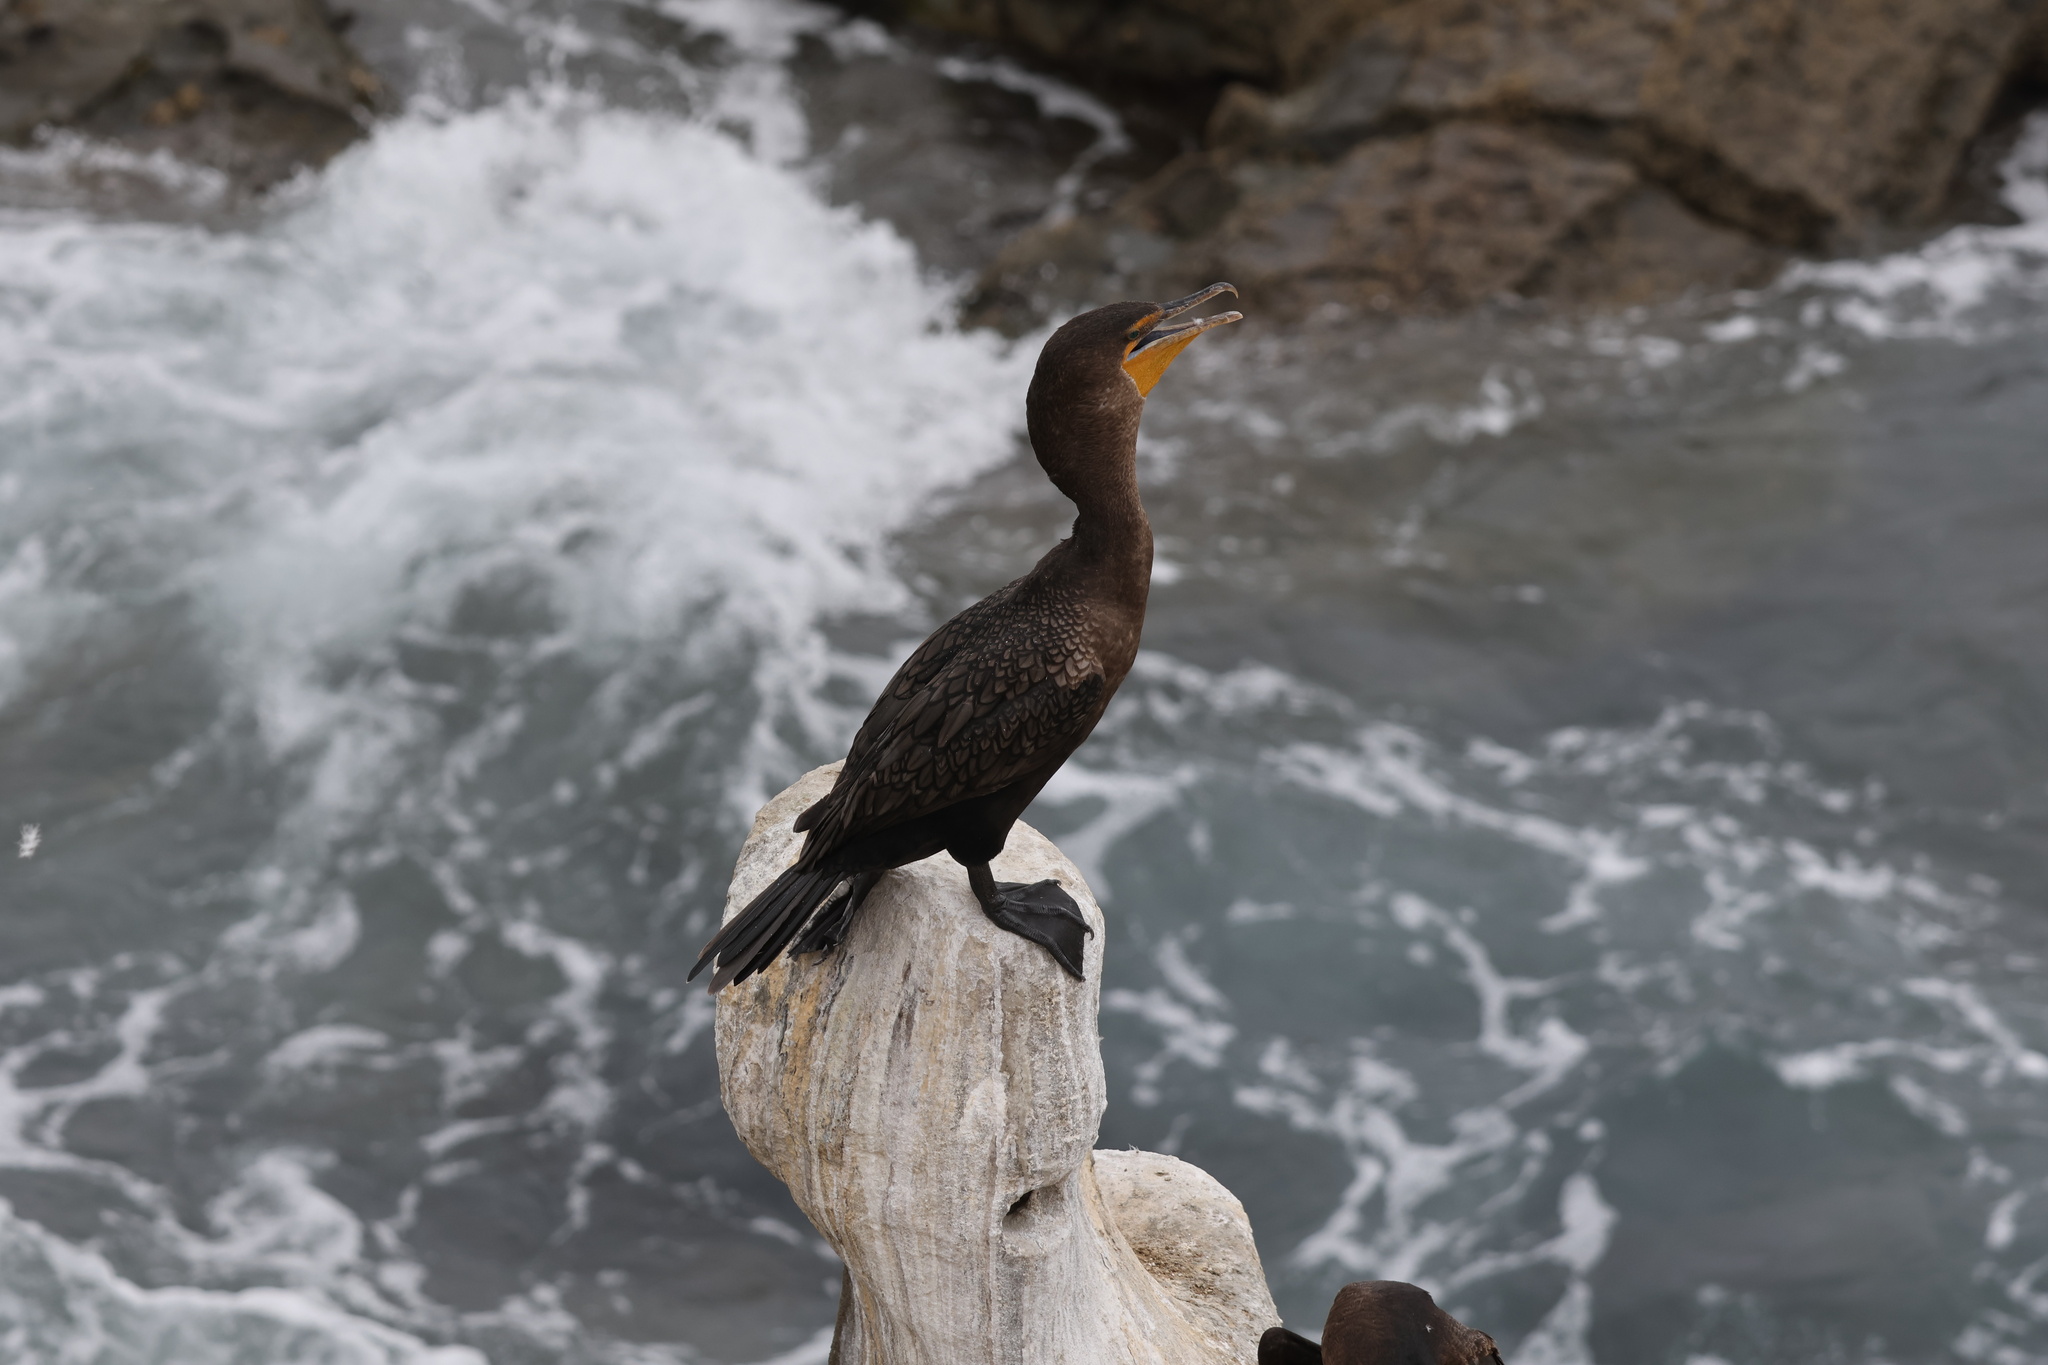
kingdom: Animalia
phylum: Chordata
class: Aves
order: Suliformes
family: Phalacrocoracidae
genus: Phalacrocorax
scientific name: Phalacrocorax auritus
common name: Double-crested cormorant
